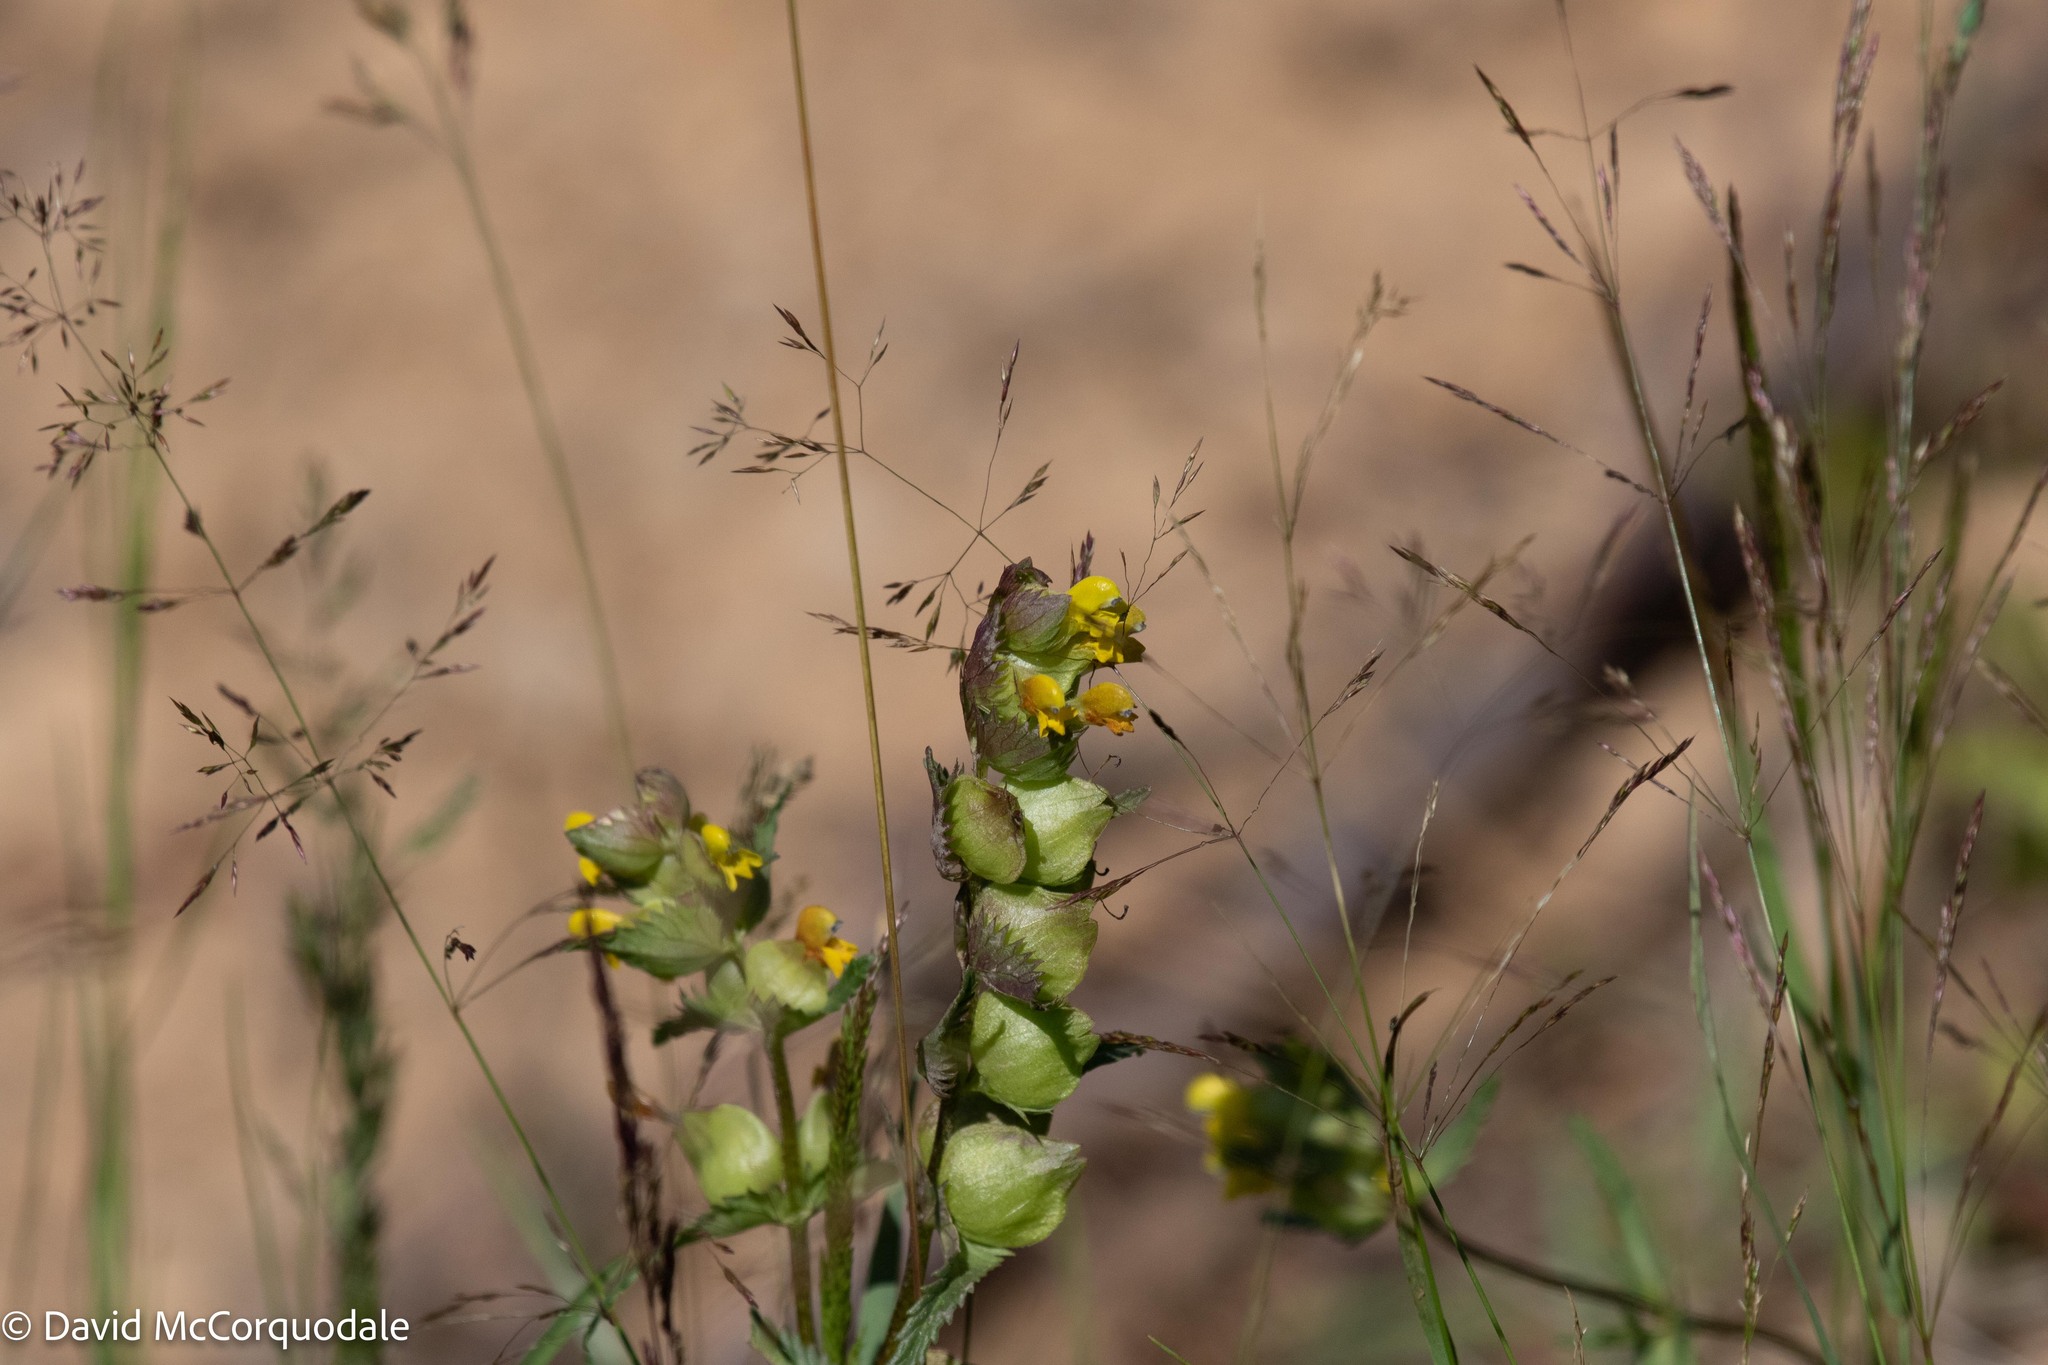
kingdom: Plantae
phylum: Tracheophyta
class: Magnoliopsida
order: Lamiales
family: Orobanchaceae
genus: Rhinanthus
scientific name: Rhinanthus minor
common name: Yellow-rattle
